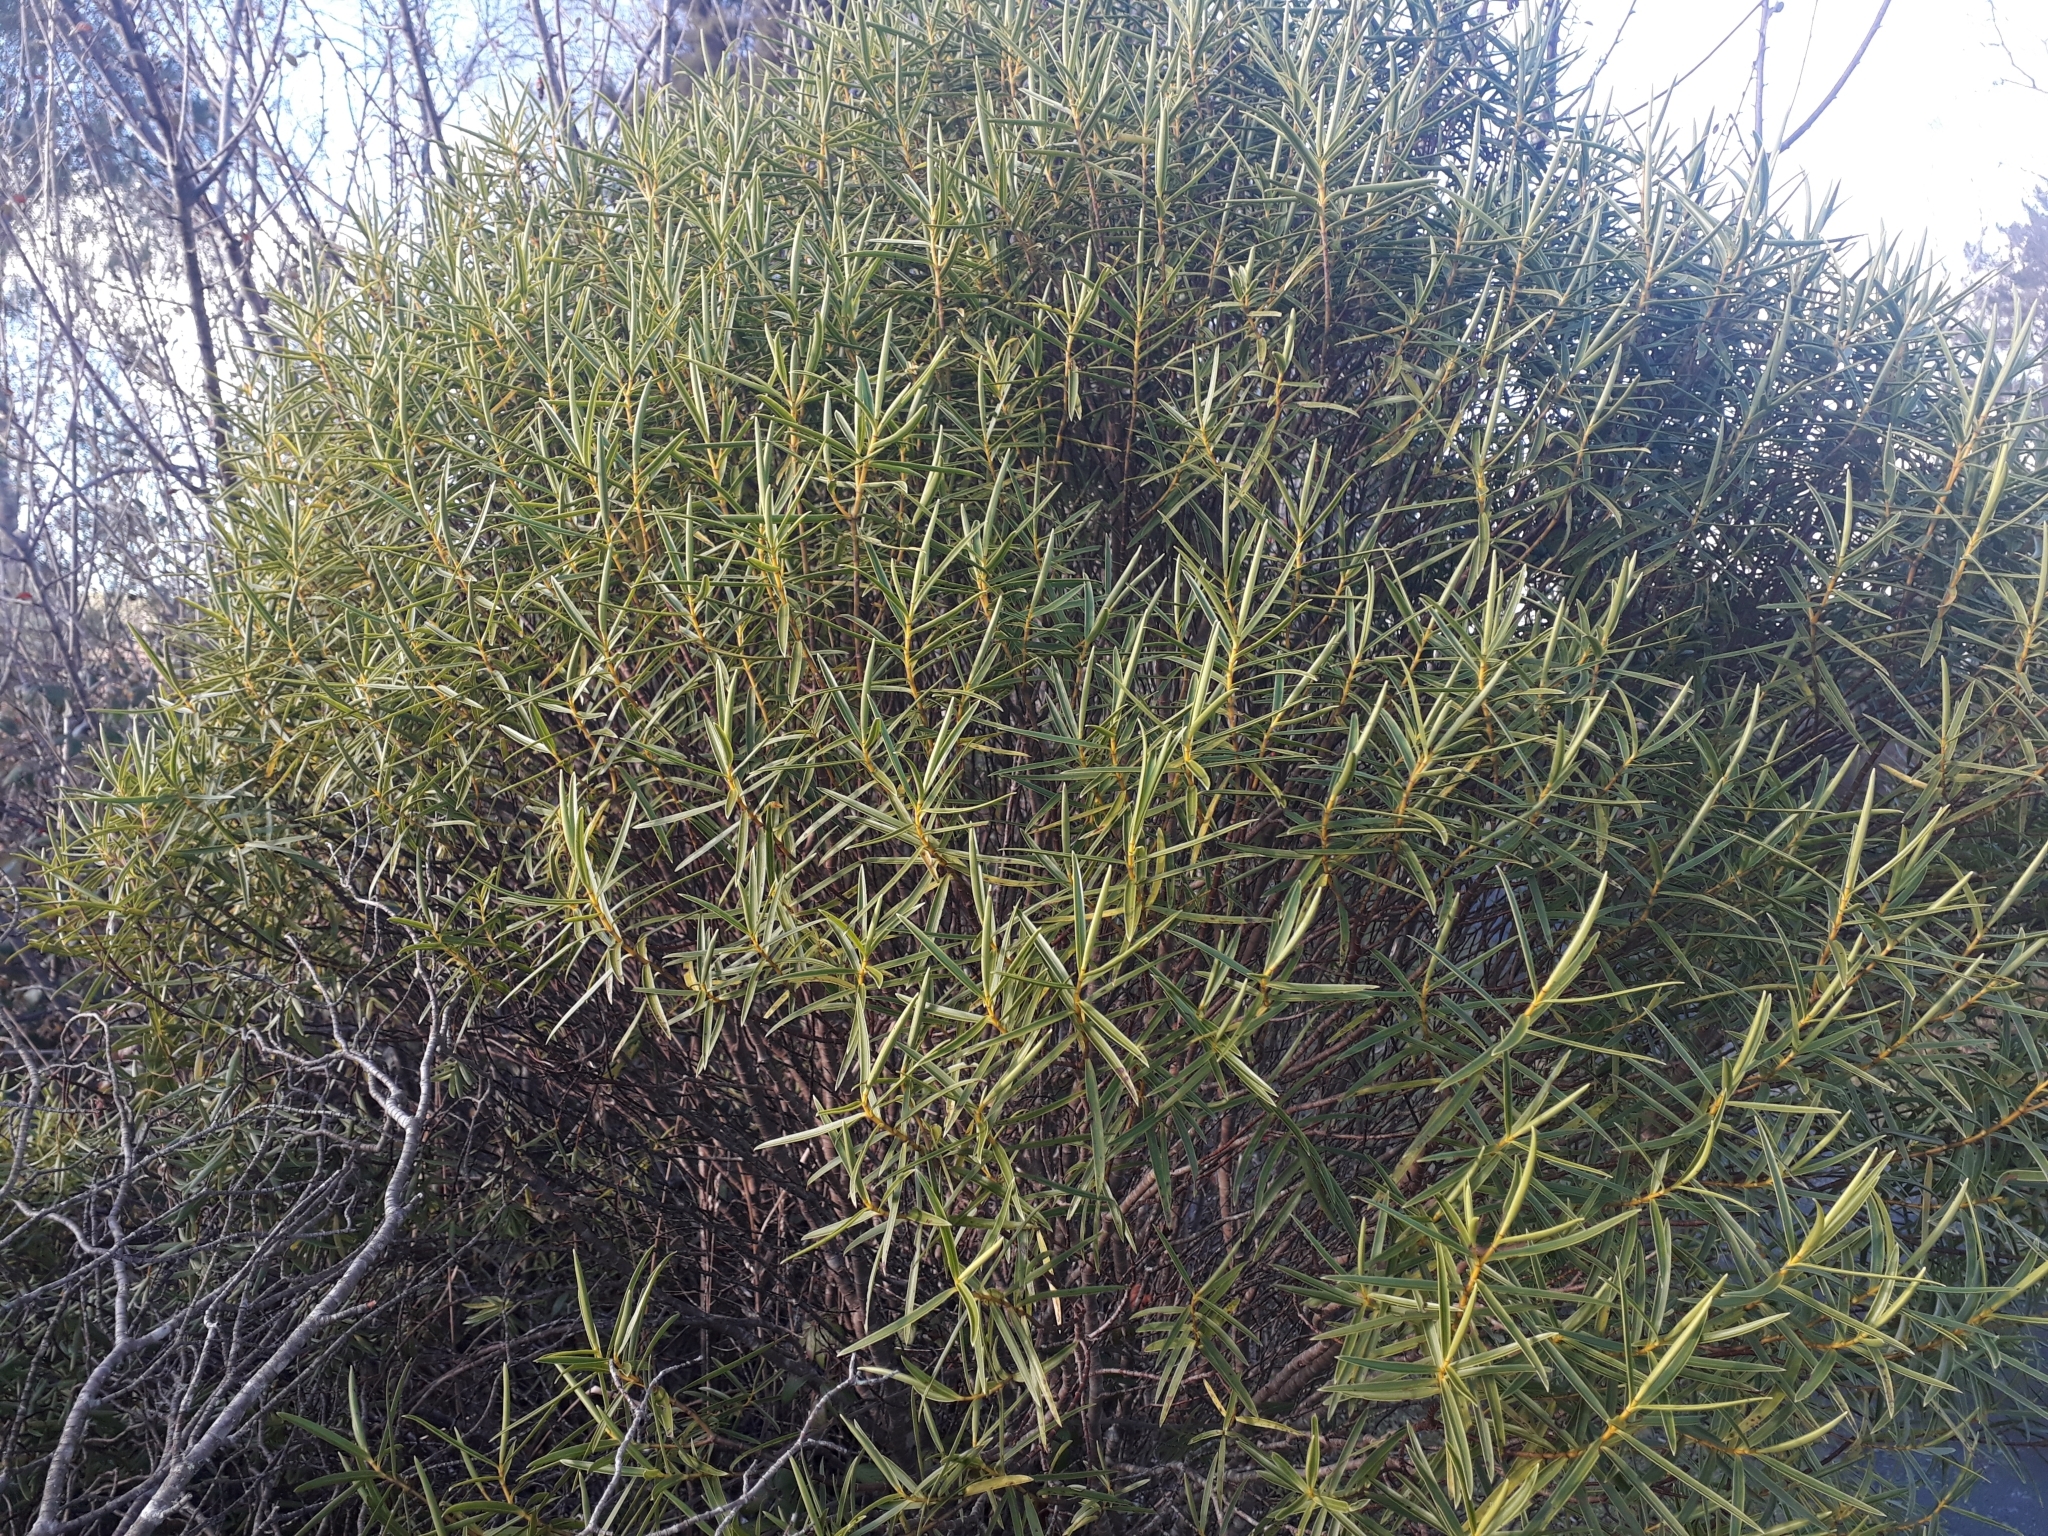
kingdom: Plantae
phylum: Tracheophyta
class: Magnoliopsida
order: Lamiales
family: Plantaginaceae
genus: Veronica
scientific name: Veronica parviflora
